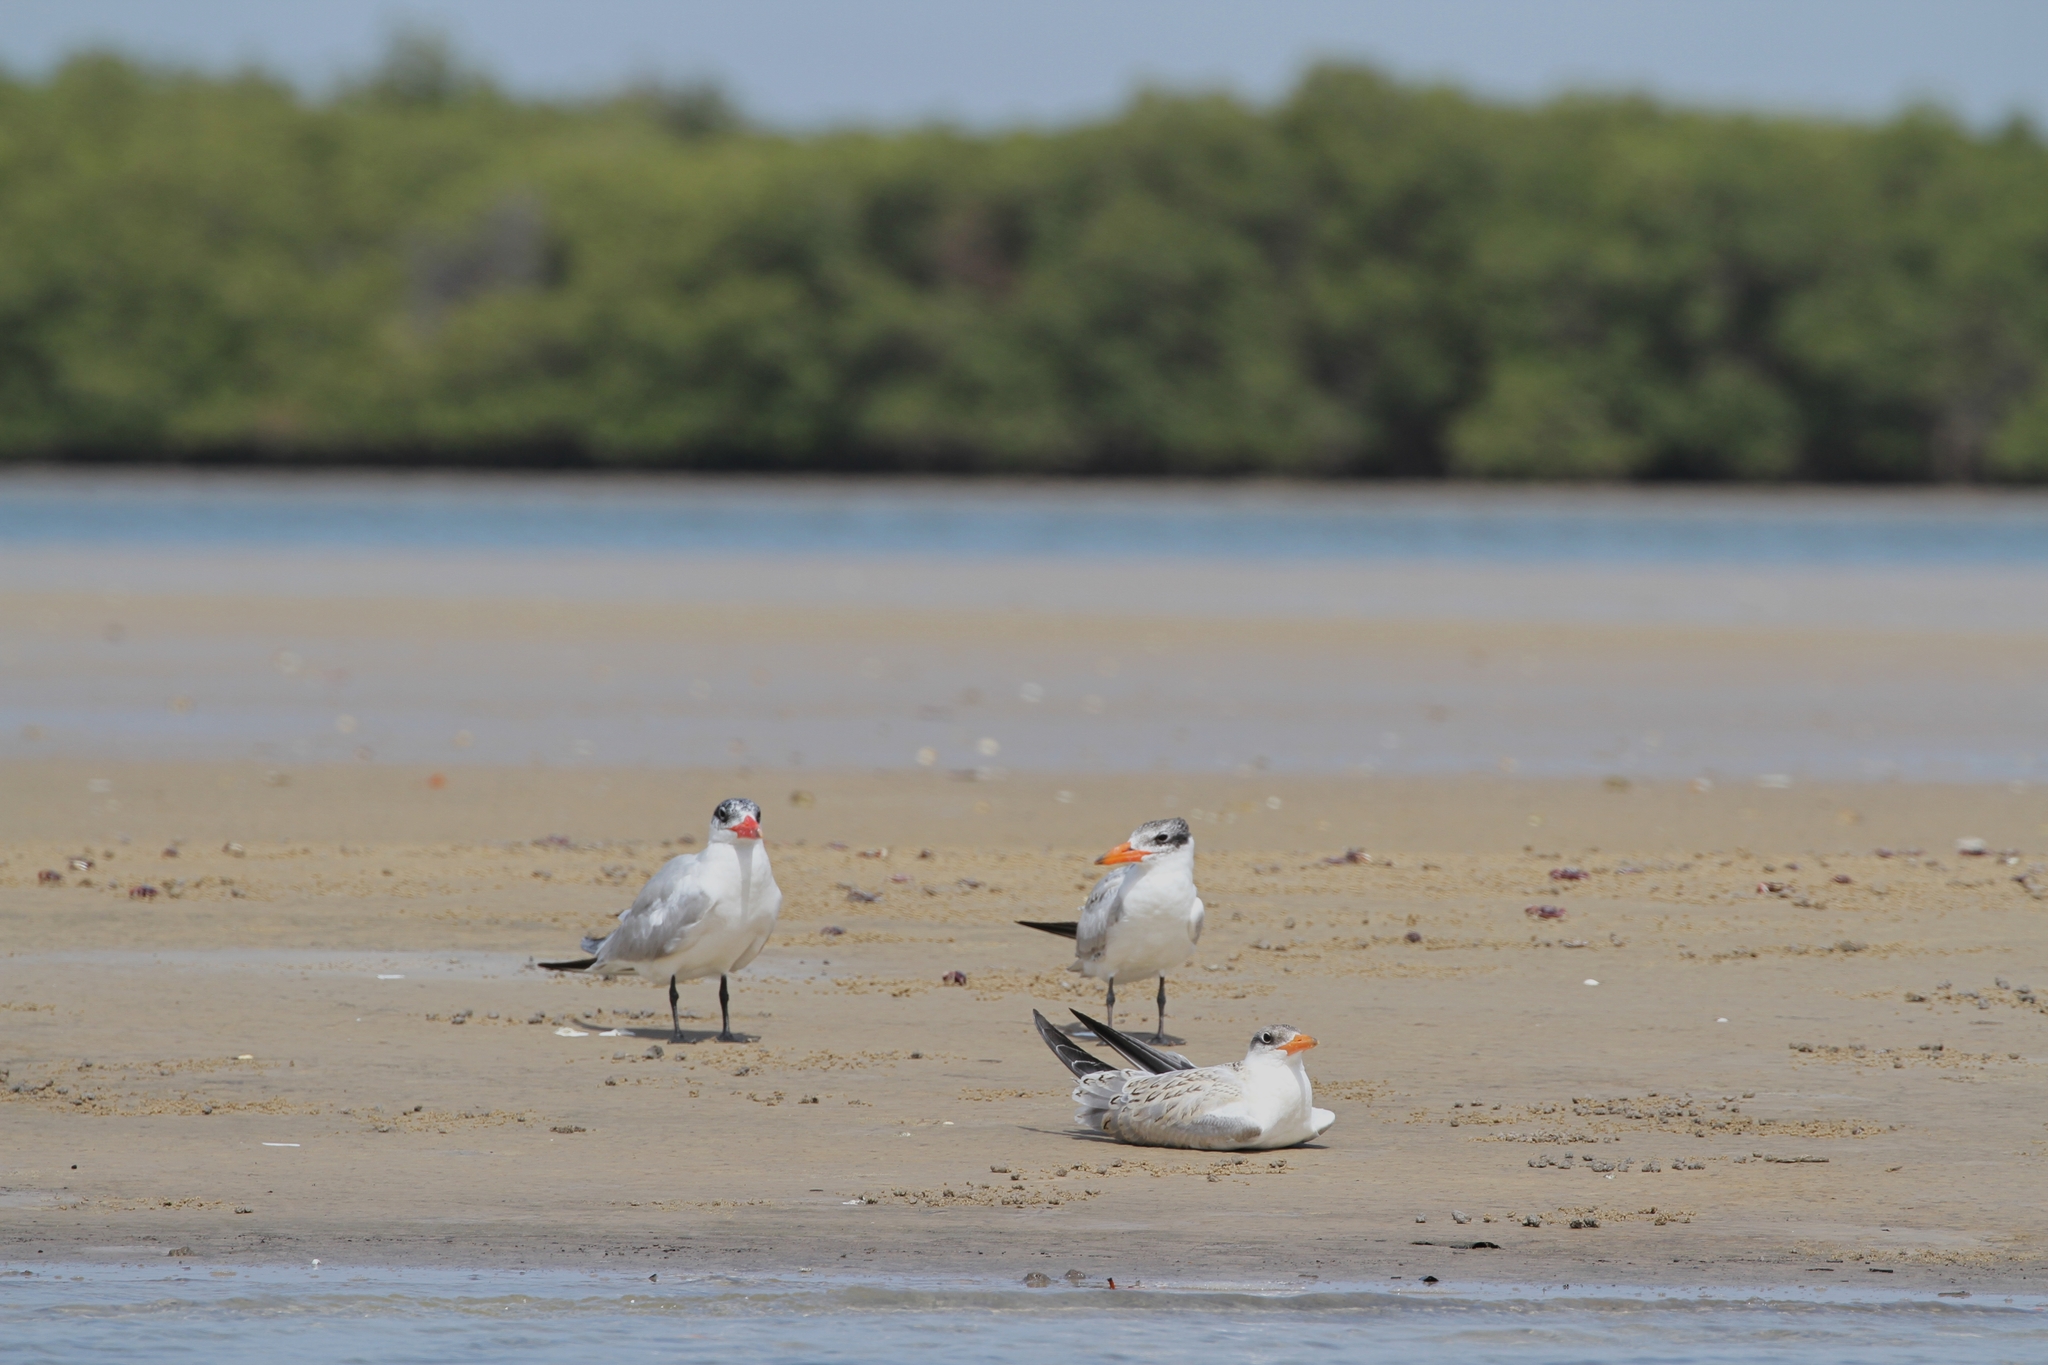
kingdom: Animalia
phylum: Chordata
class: Aves
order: Charadriiformes
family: Laridae
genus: Hydroprogne
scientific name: Hydroprogne caspia
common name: Caspian tern
